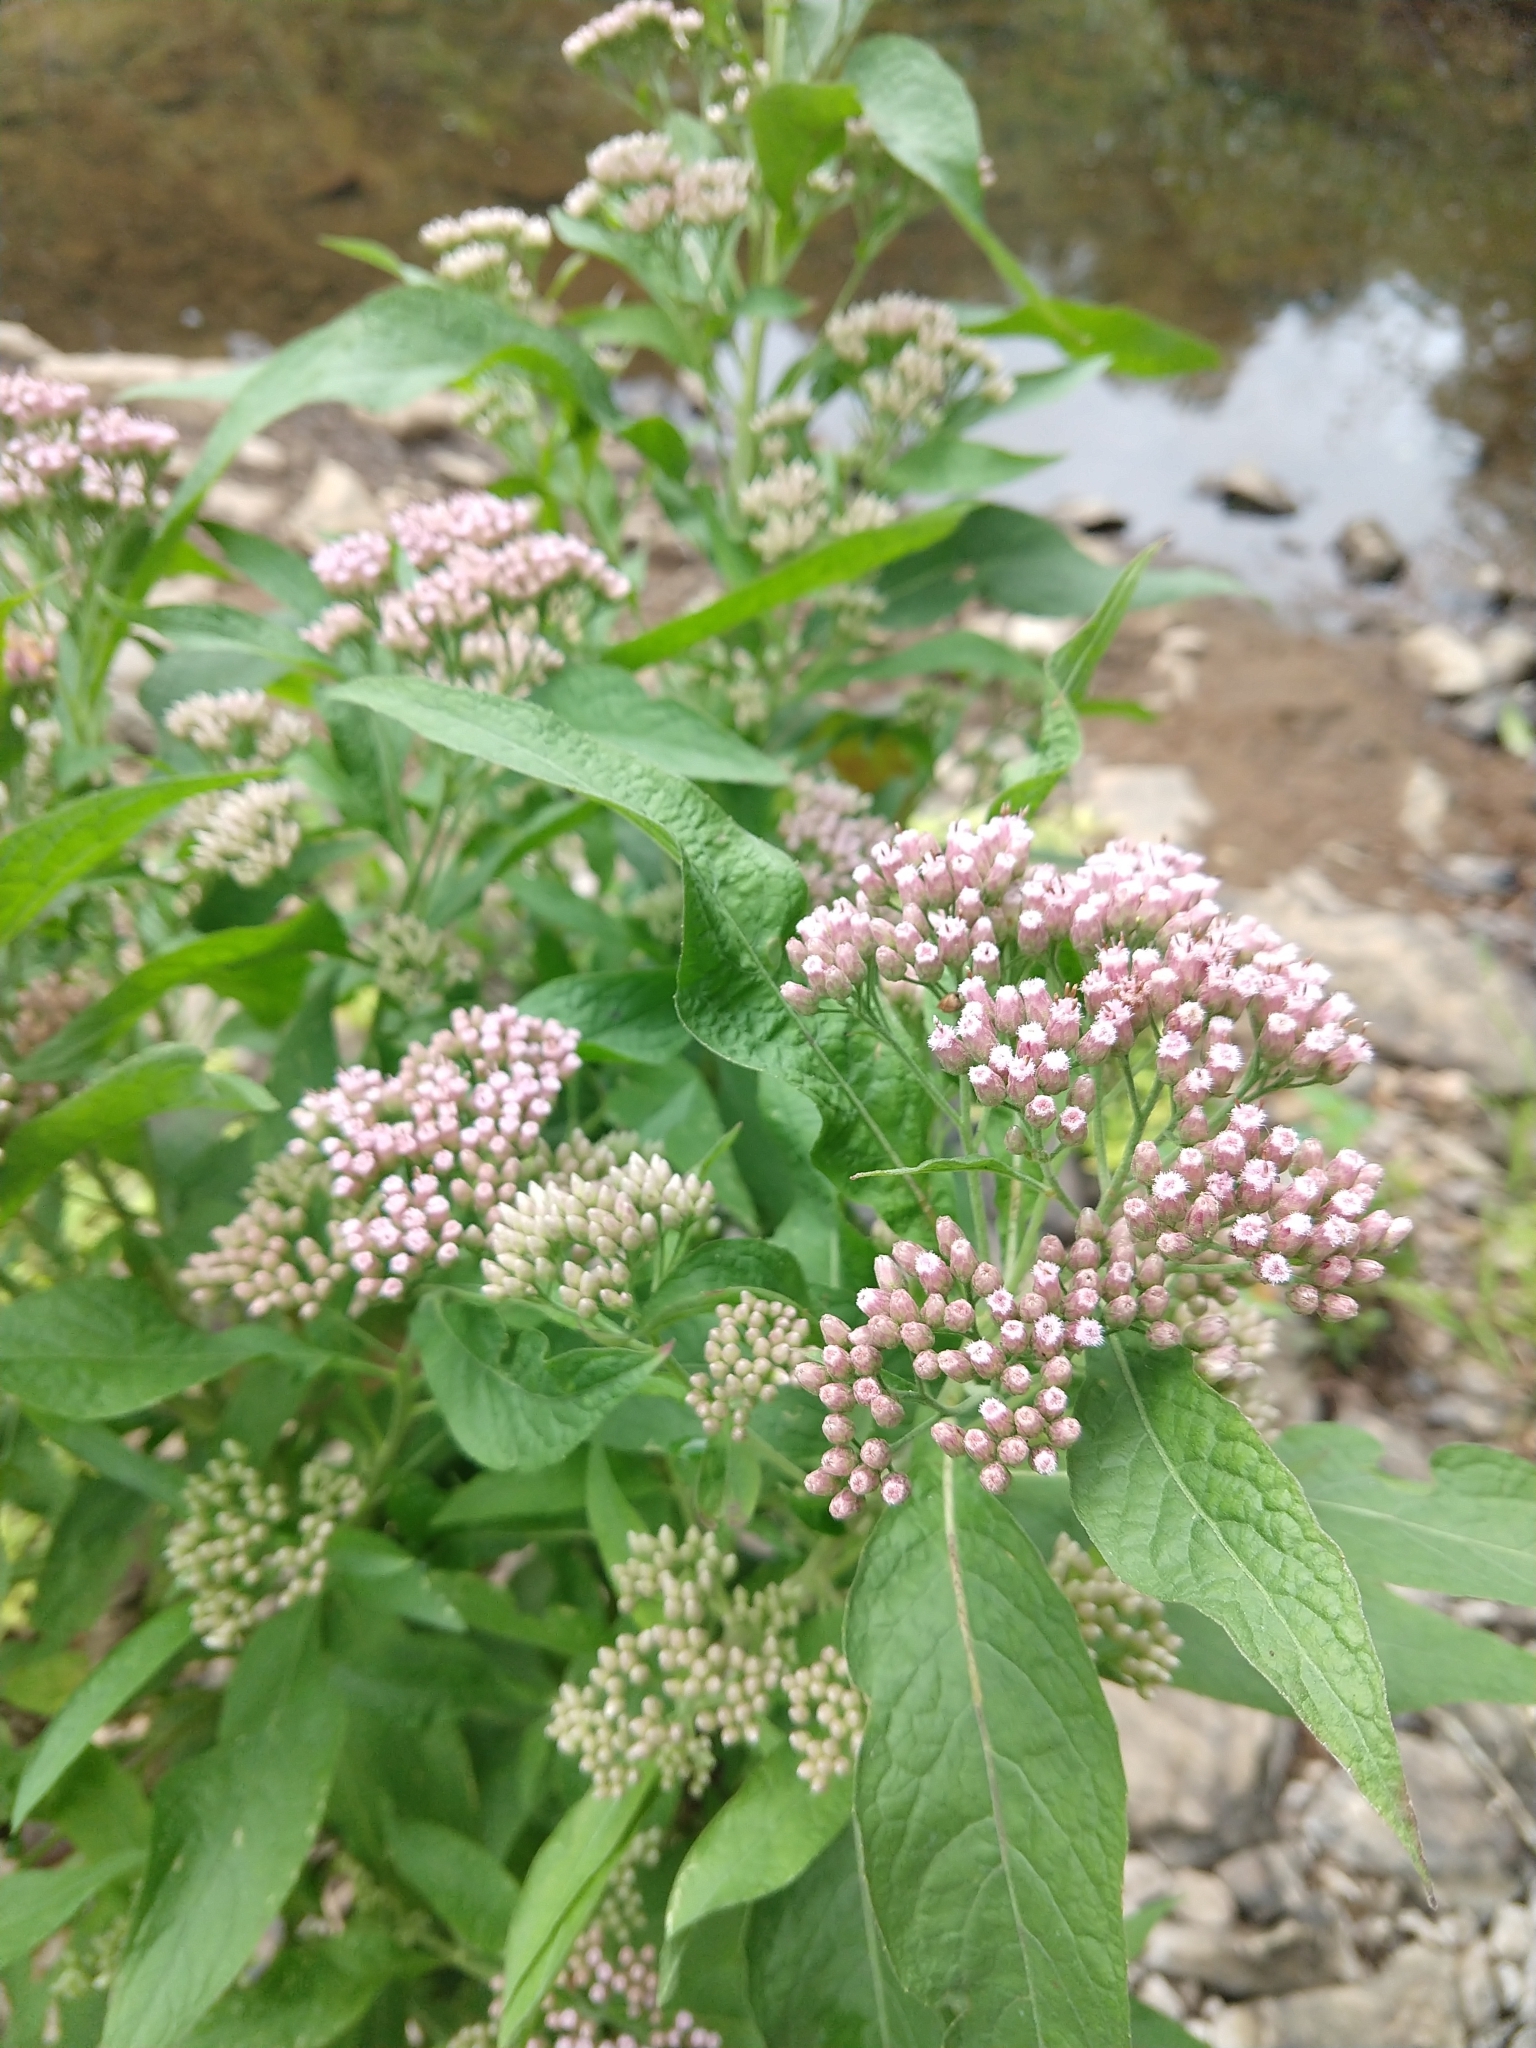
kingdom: Plantae
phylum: Tracheophyta
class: Magnoliopsida
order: Asterales
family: Asteraceae
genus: Pluchea
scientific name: Pluchea camphorata
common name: Camphor pluchea
